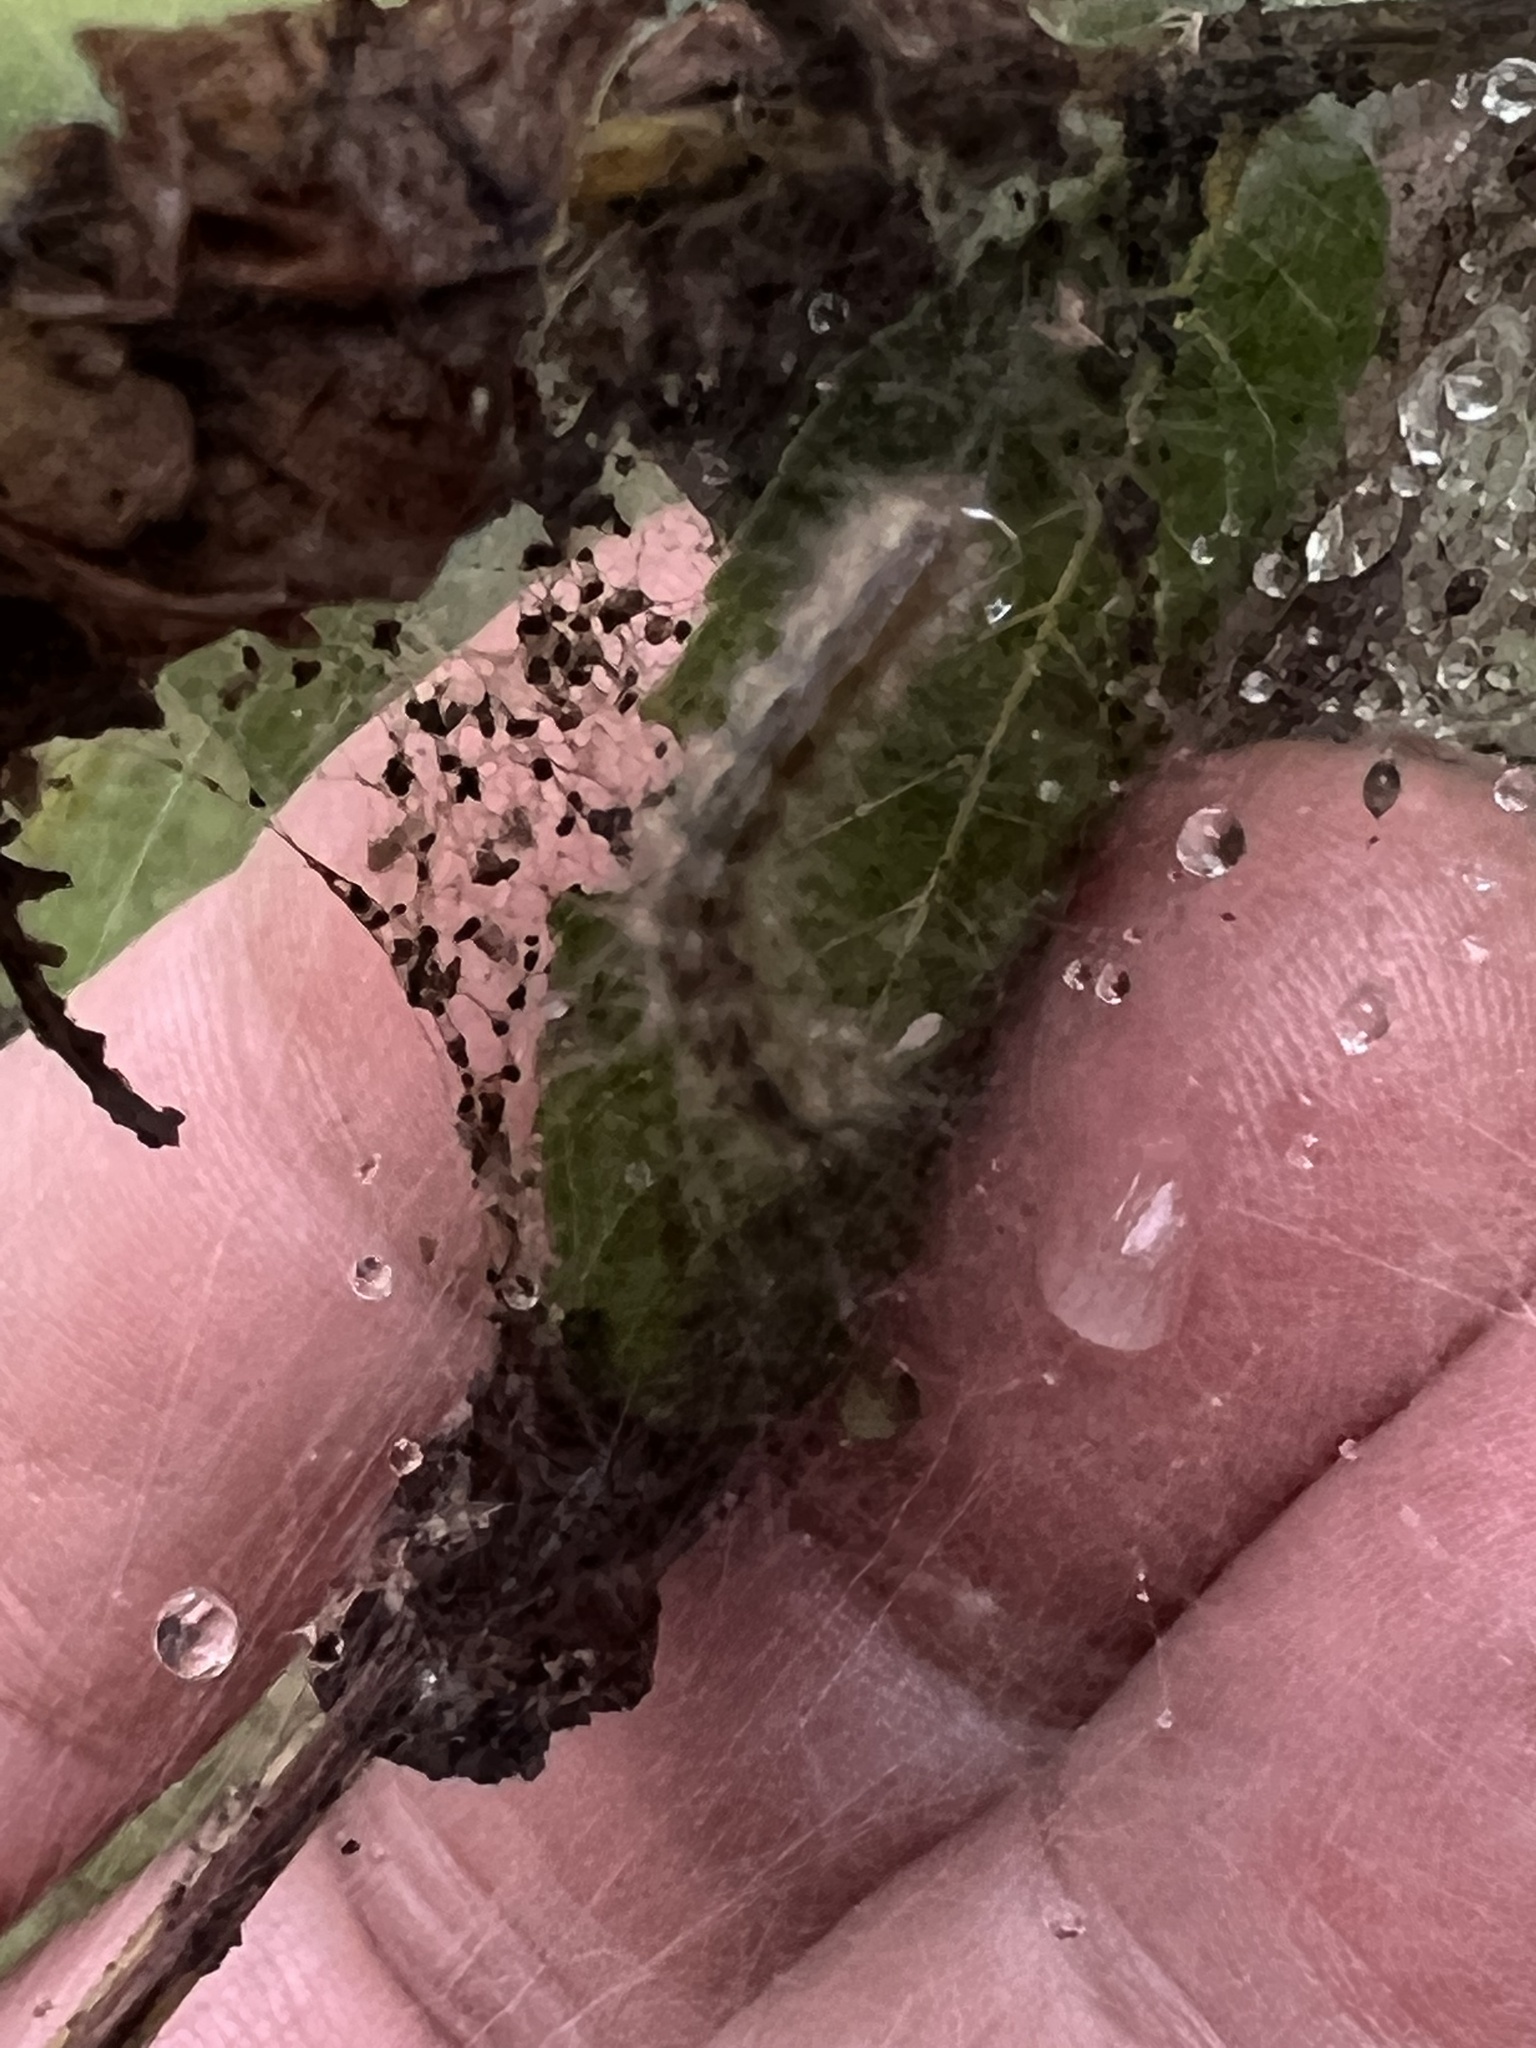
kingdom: Animalia
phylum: Arthropoda
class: Insecta
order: Lepidoptera
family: Erebidae
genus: Hyphantria
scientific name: Hyphantria cunea
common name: American white moth
